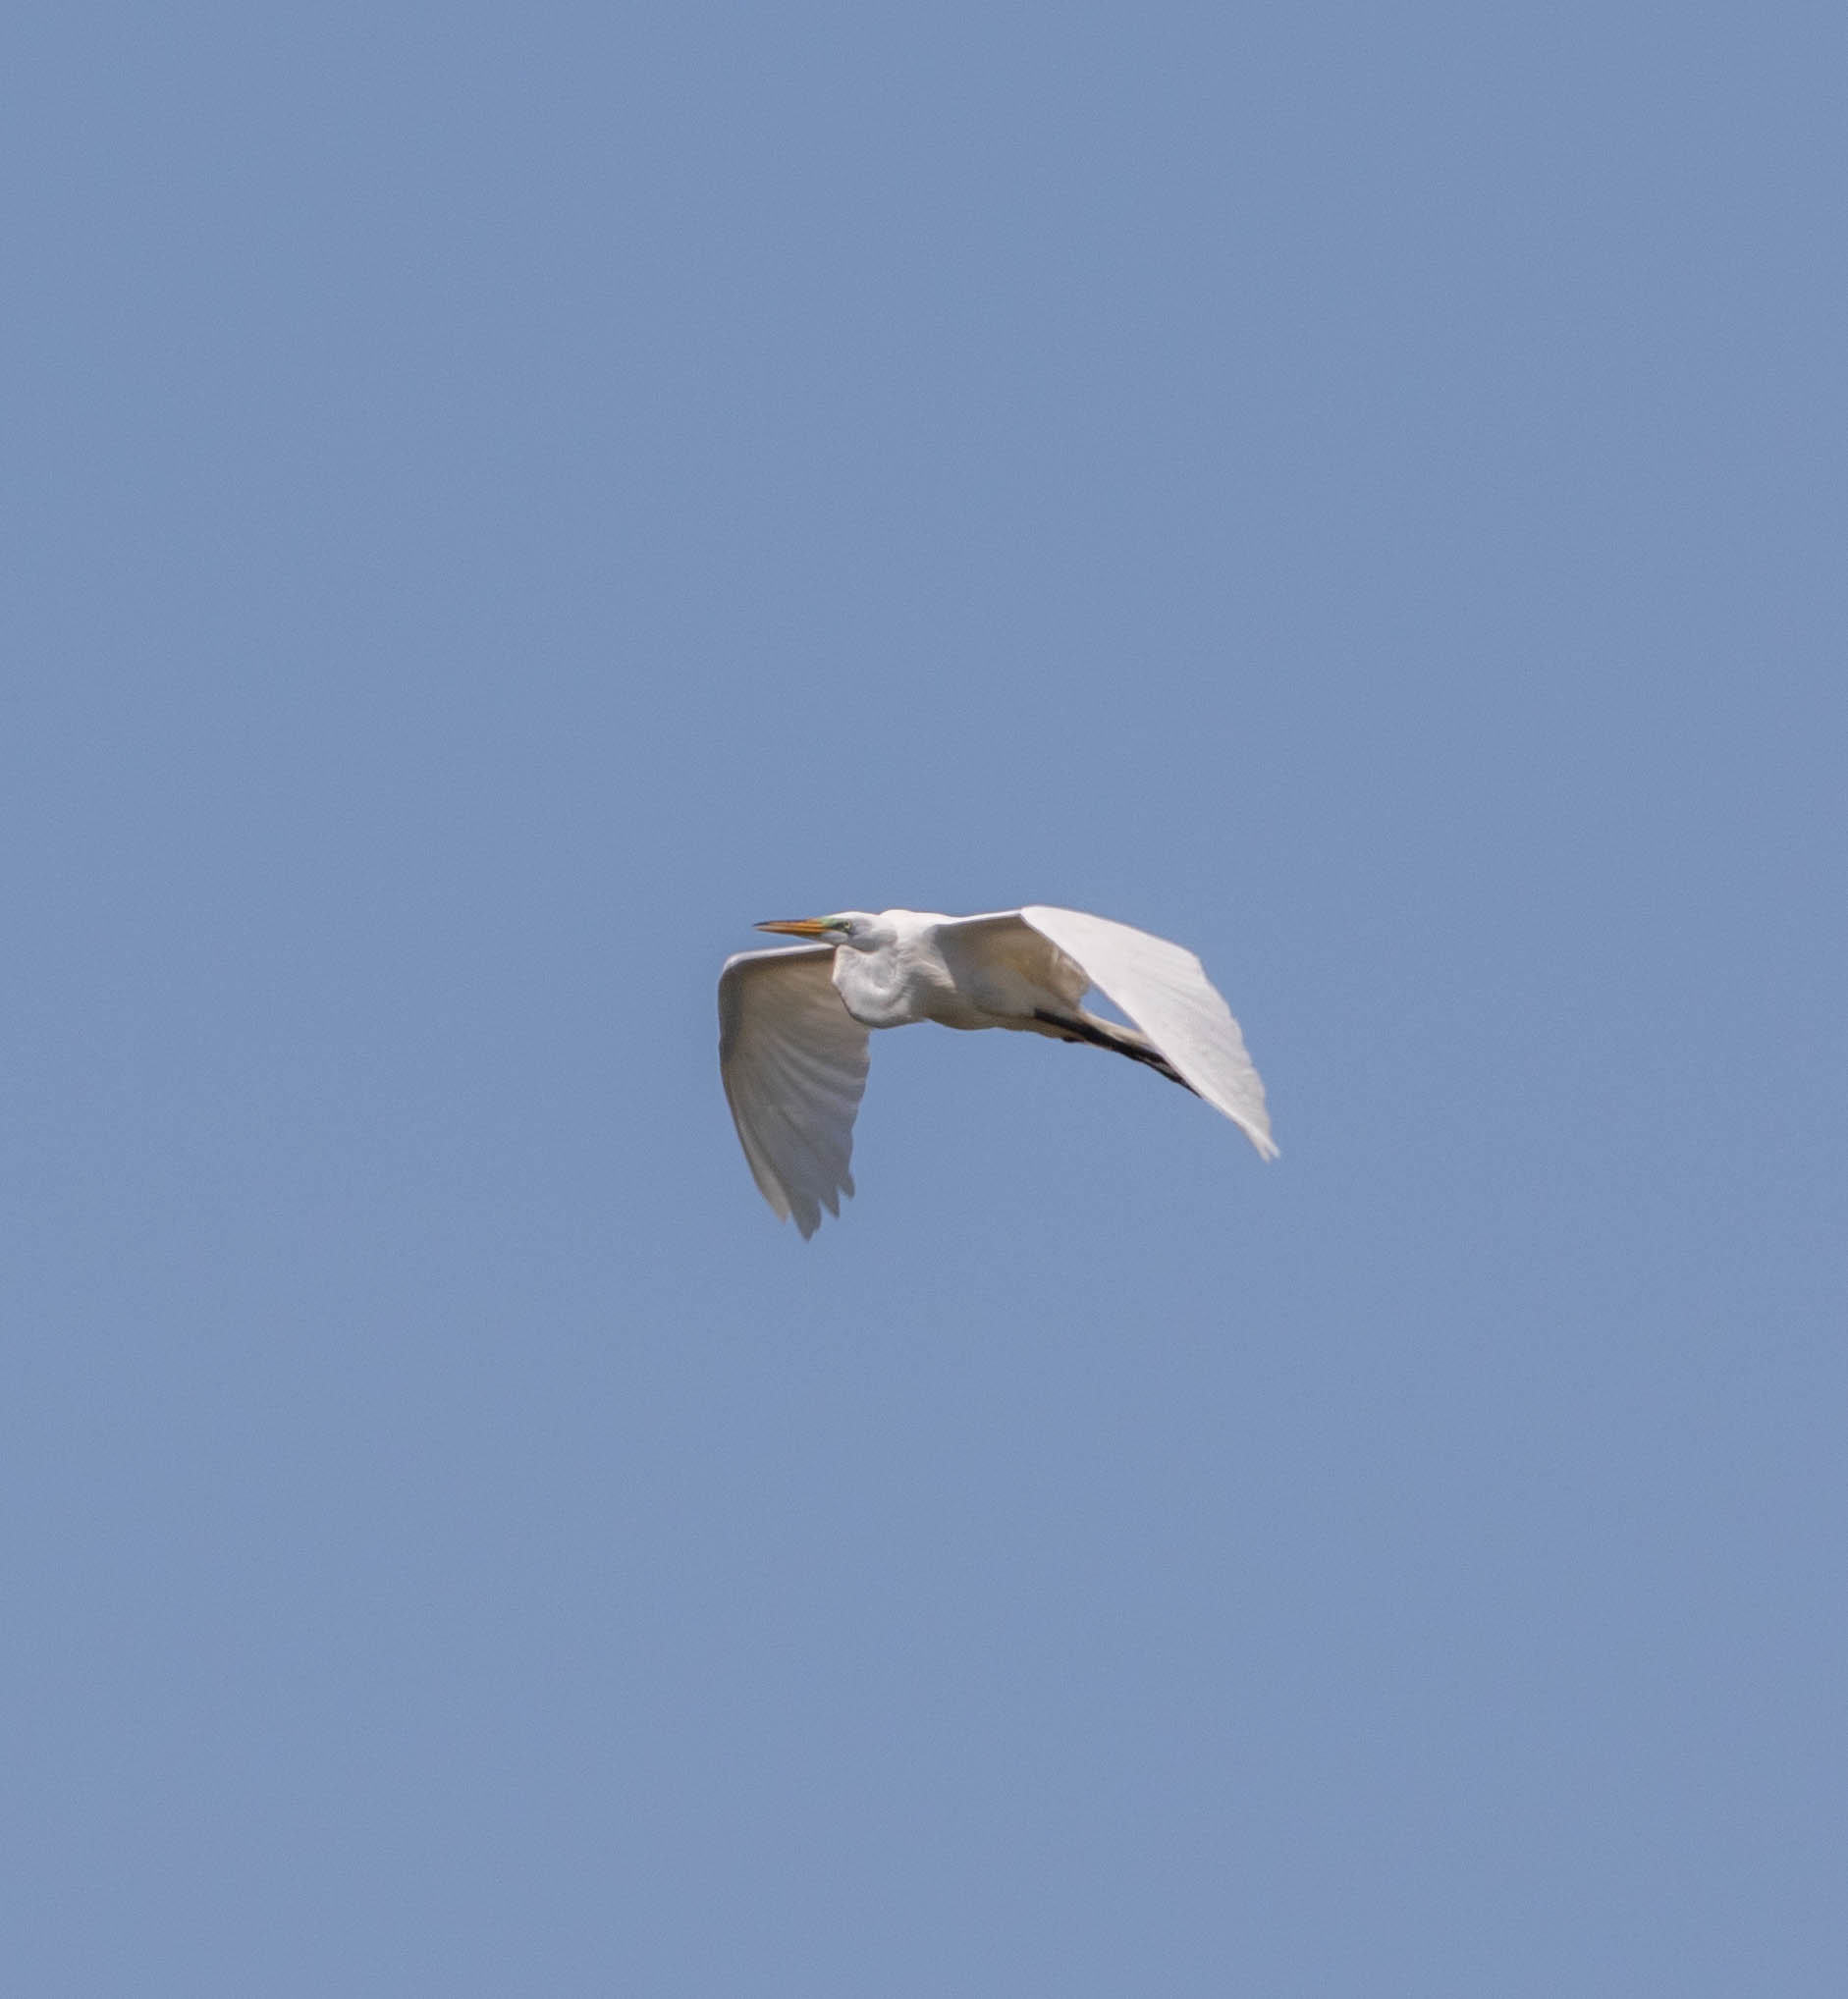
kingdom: Animalia
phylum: Chordata
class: Aves
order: Pelecaniformes
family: Ardeidae
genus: Ardea
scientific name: Ardea alba
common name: Great egret
